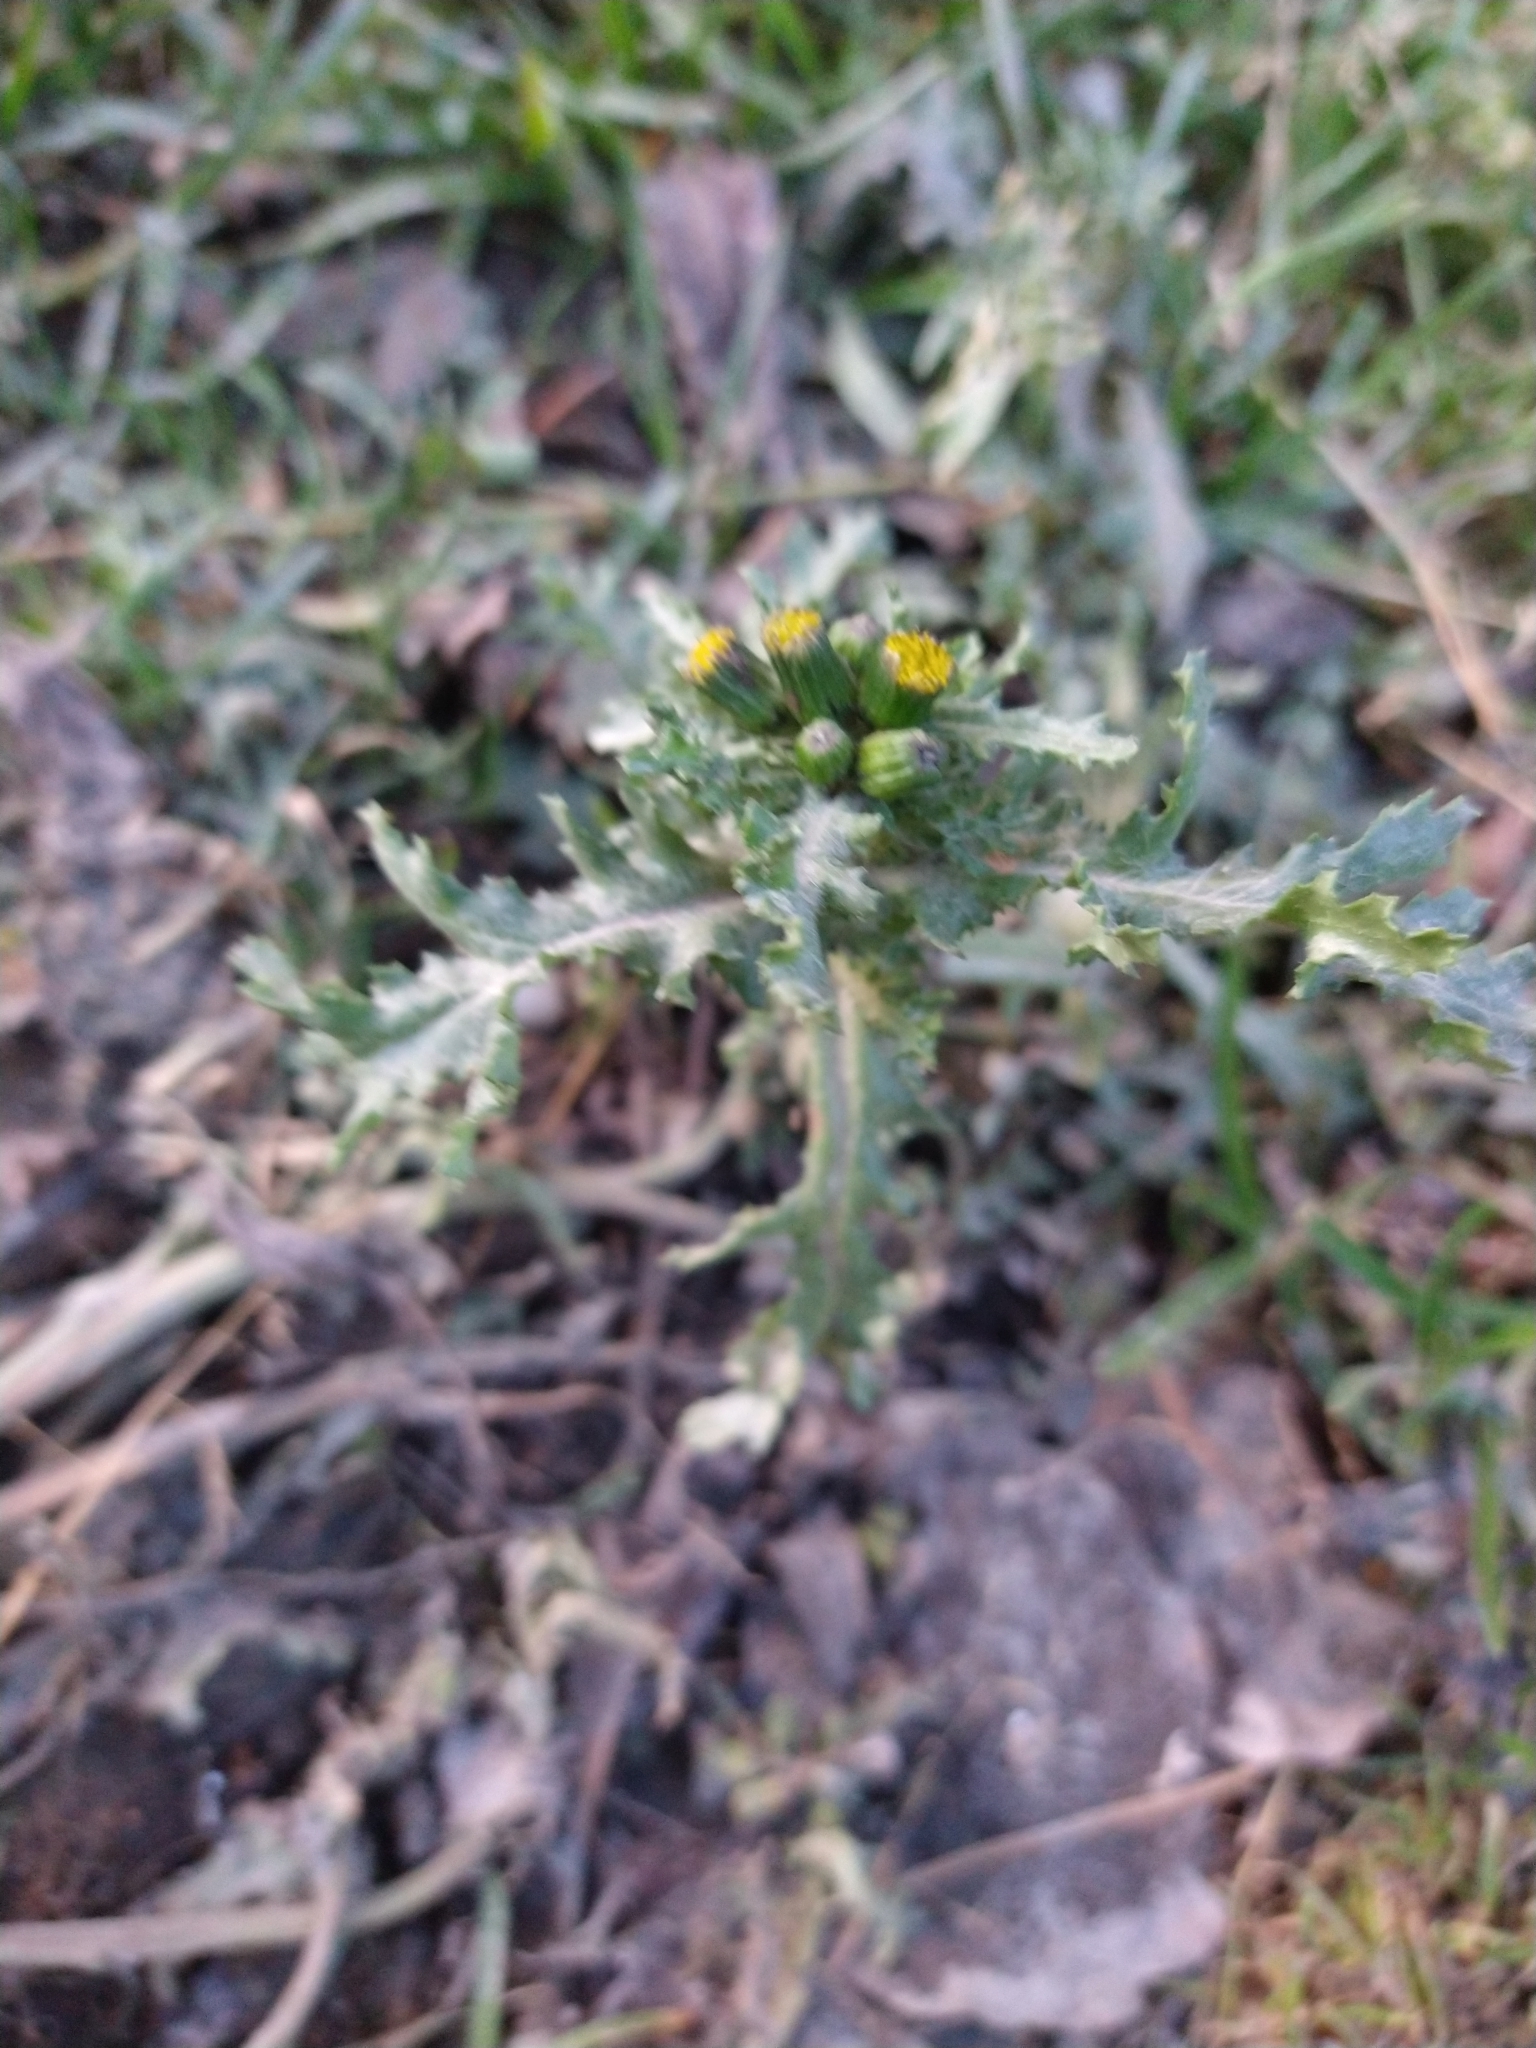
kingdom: Plantae
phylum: Tracheophyta
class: Magnoliopsida
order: Asterales
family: Asteraceae
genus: Senecio
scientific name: Senecio vulgaris
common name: Old-man-in-the-spring
